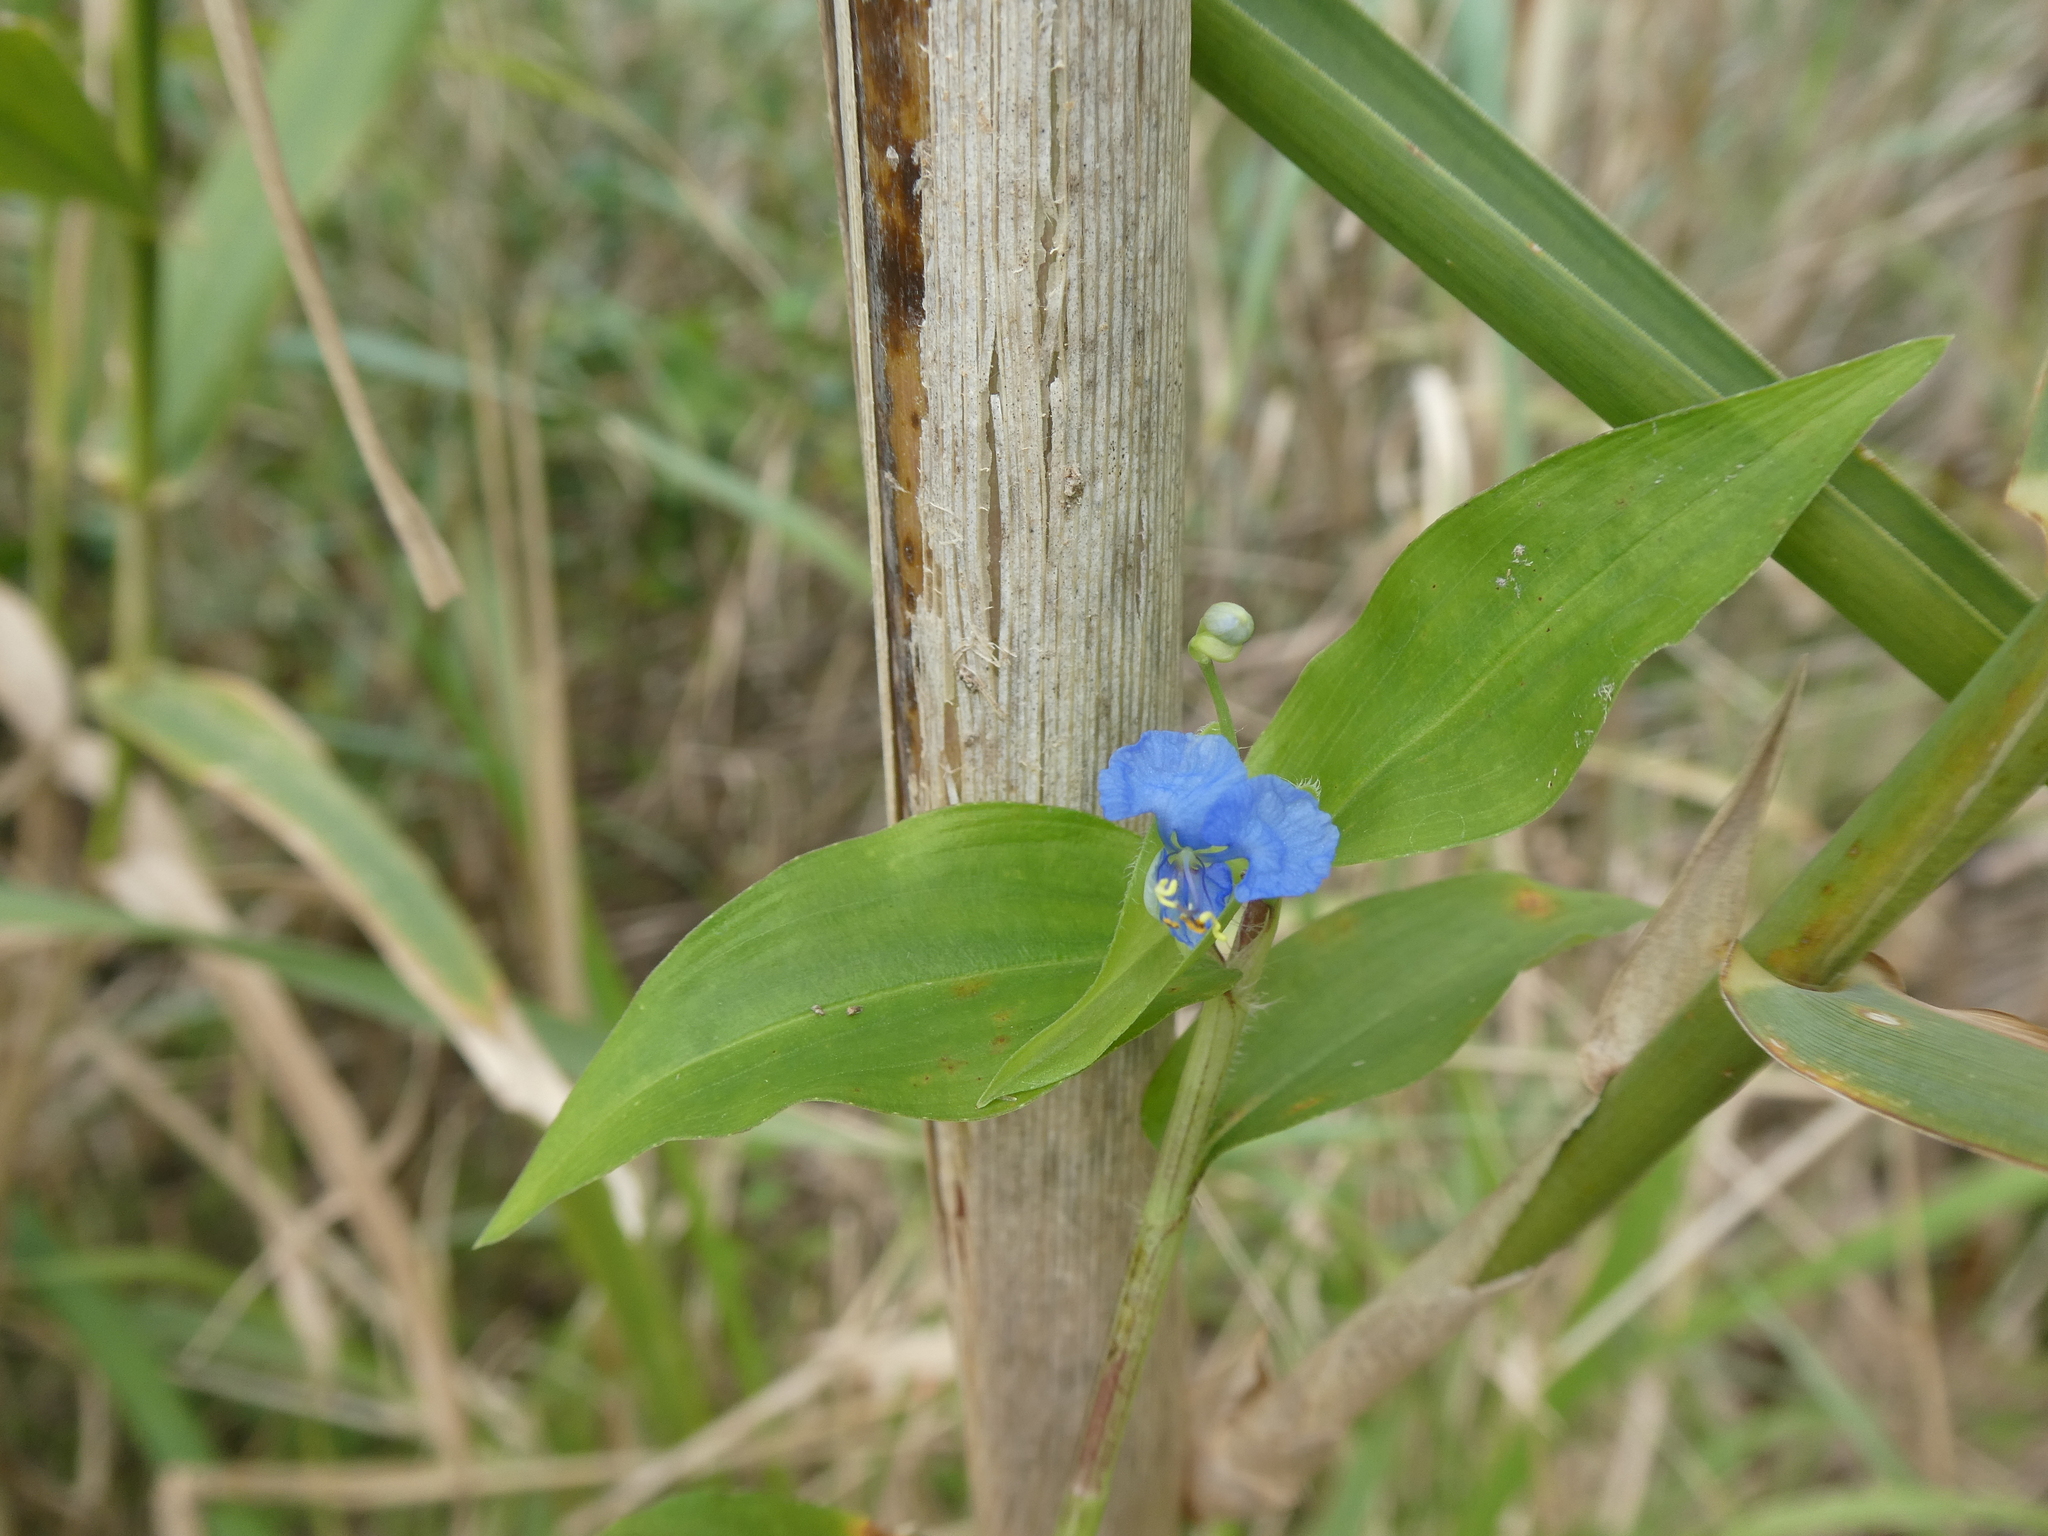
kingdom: Plantae
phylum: Tracheophyta
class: Liliopsida
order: Commelinales
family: Commelinaceae
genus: Commelina
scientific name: Commelina diffusa
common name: Climbing dayflower
